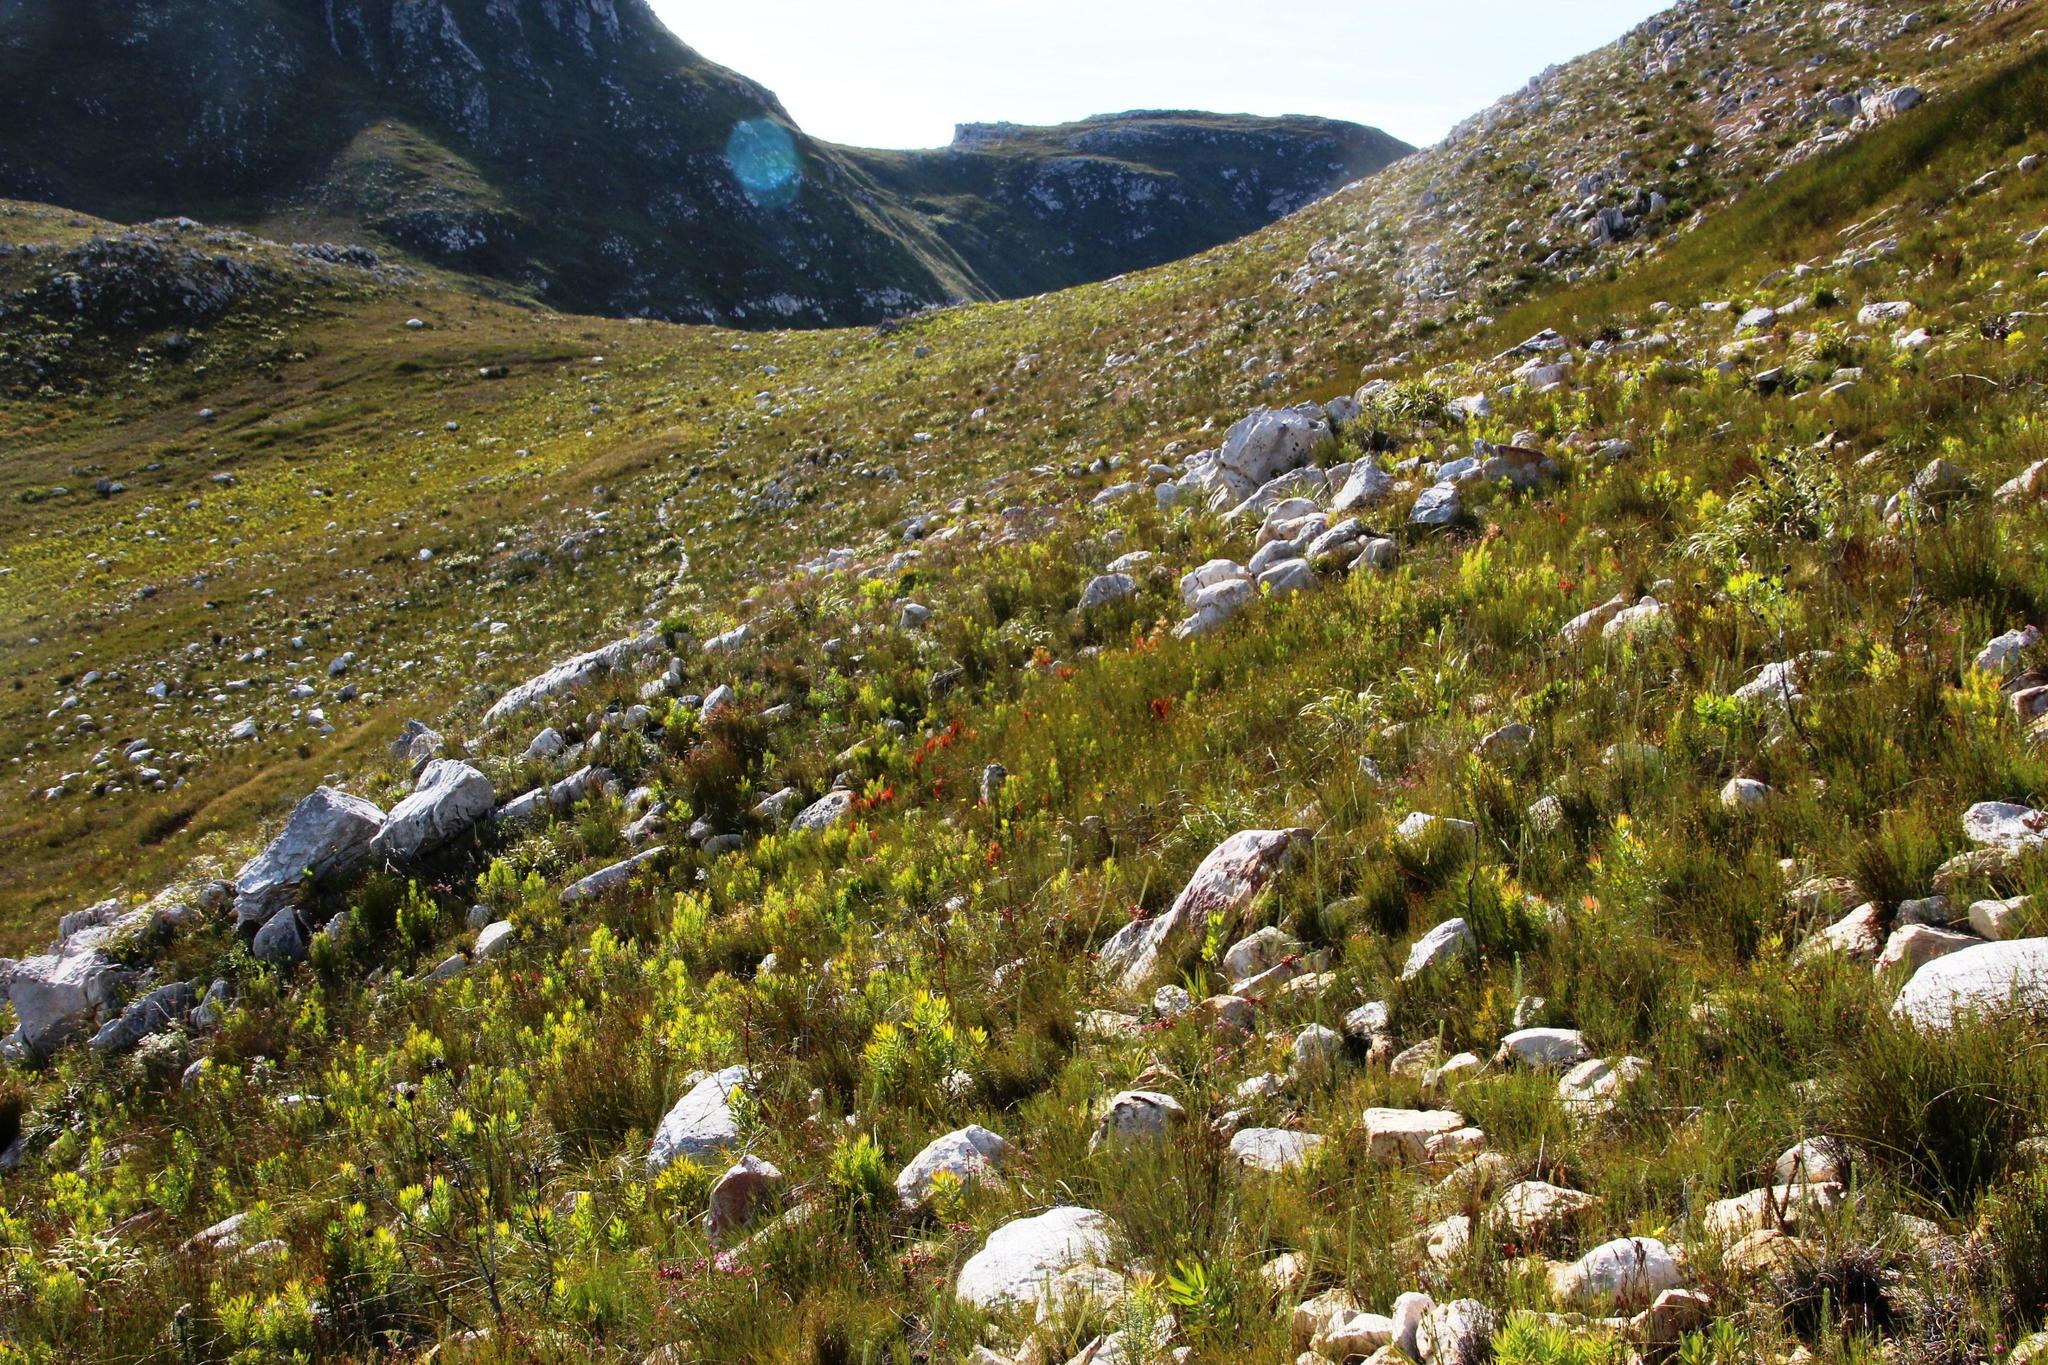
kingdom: Plantae
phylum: Tracheophyta
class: Magnoliopsida
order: Ericales
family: Ericaceae
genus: Erica
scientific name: Erica pillansii
